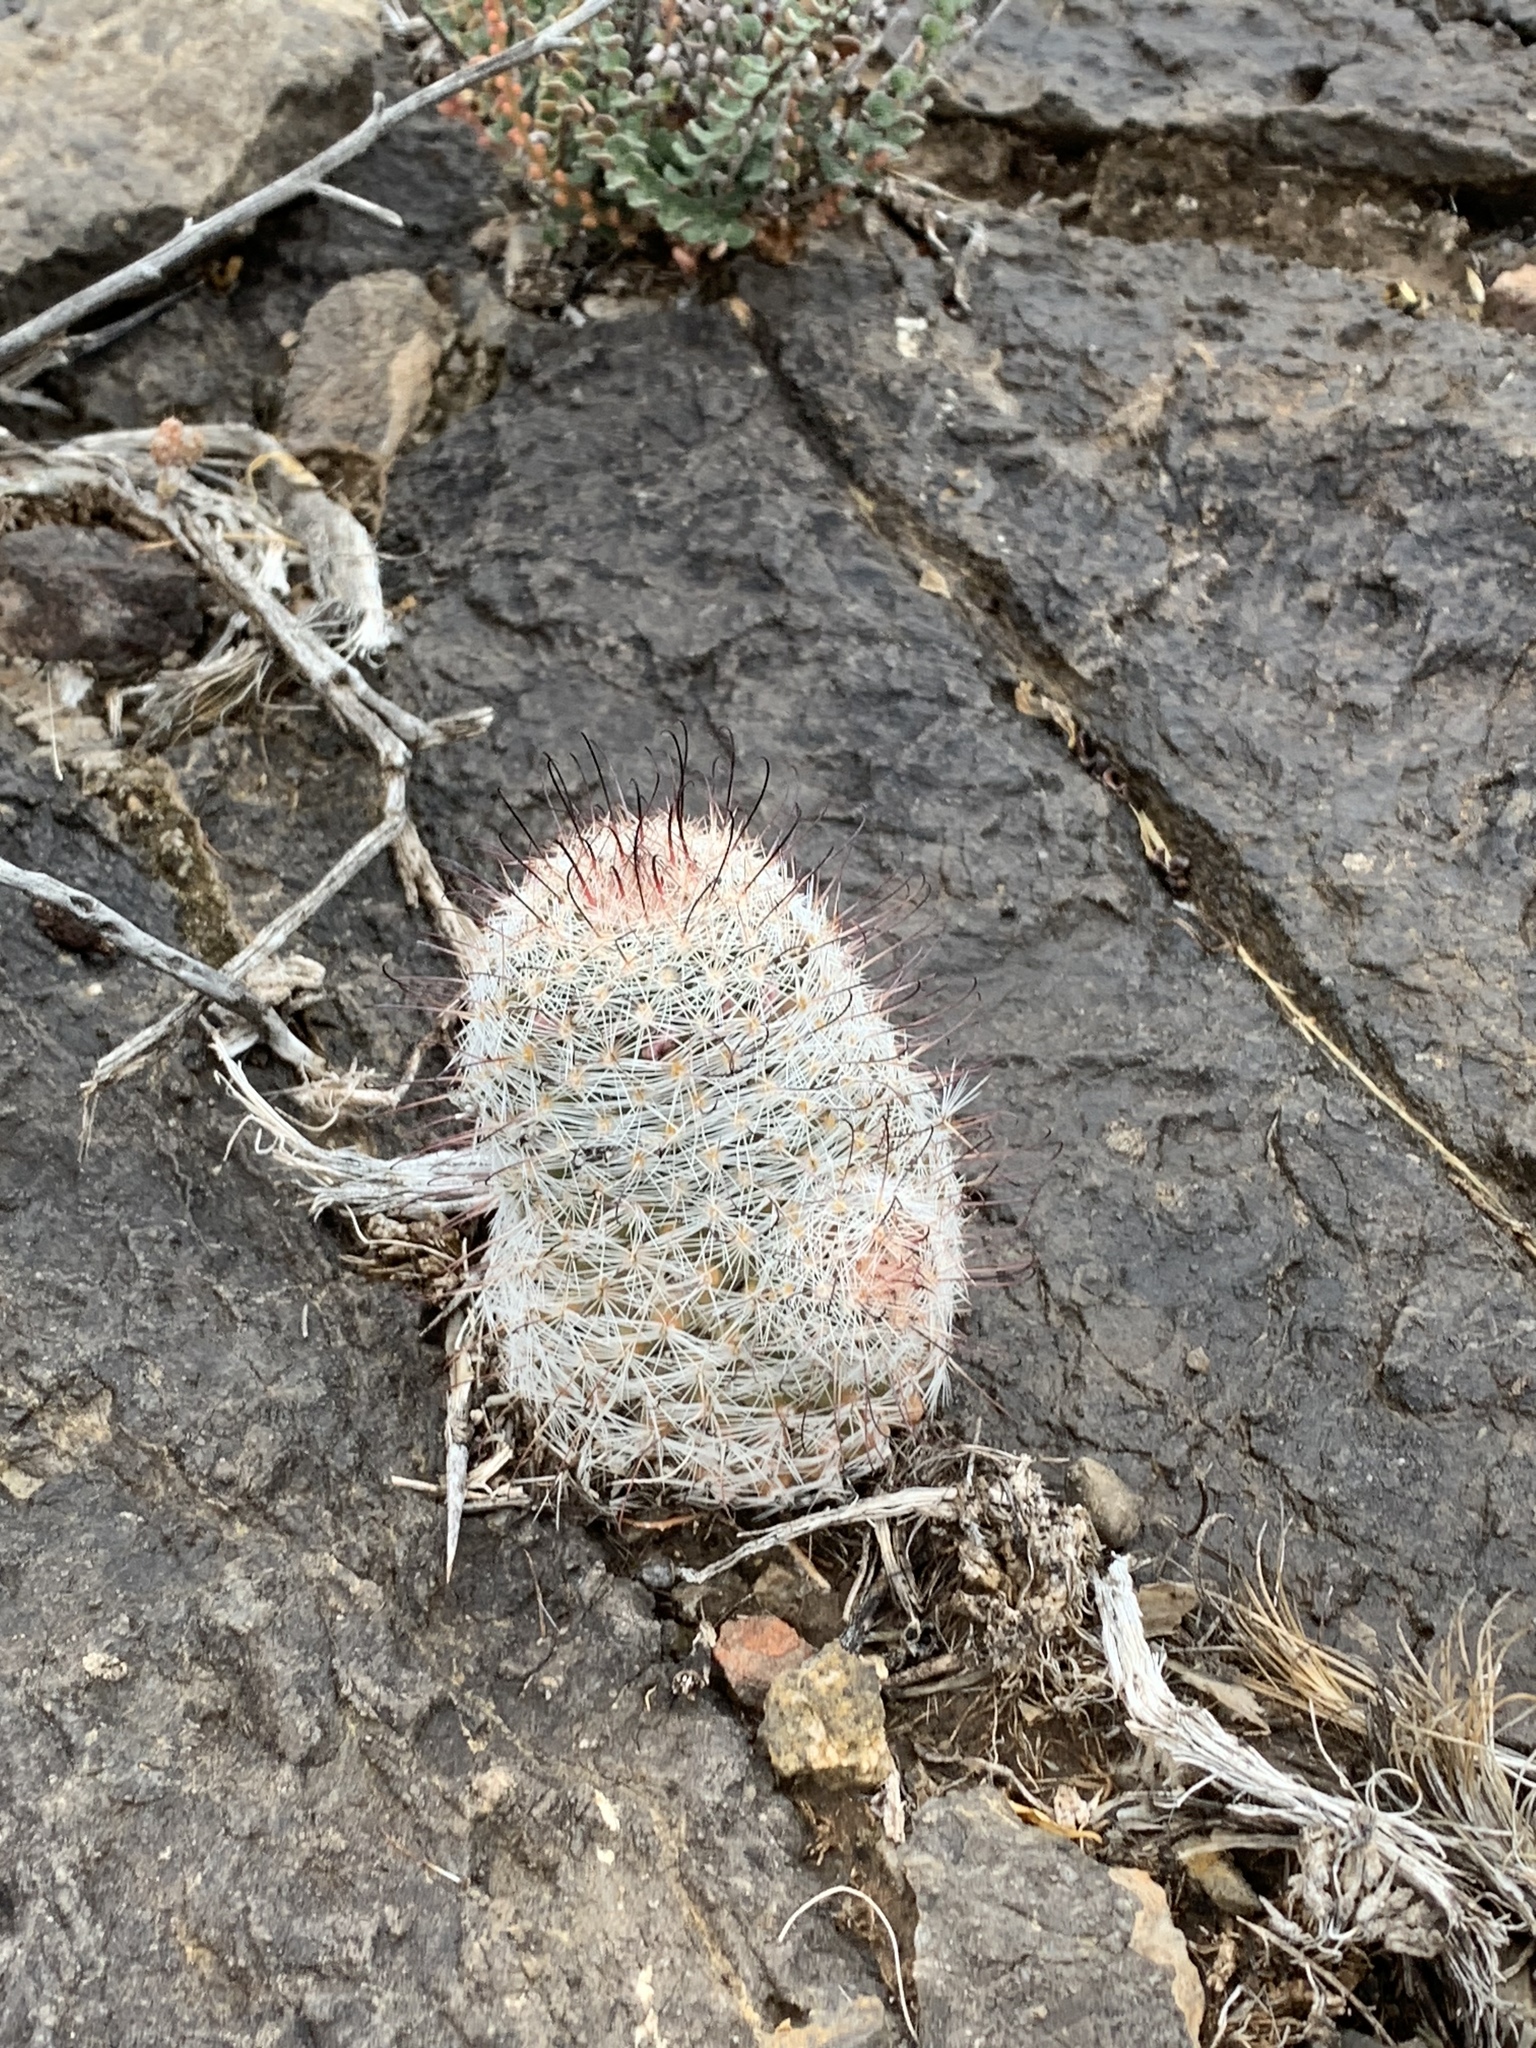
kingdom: Plantae
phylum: Tracheophyta
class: Magnoliopsida
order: Caryophyllales
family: Cactaceae
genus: Cochemiea
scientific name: Cochemiea grahamii
